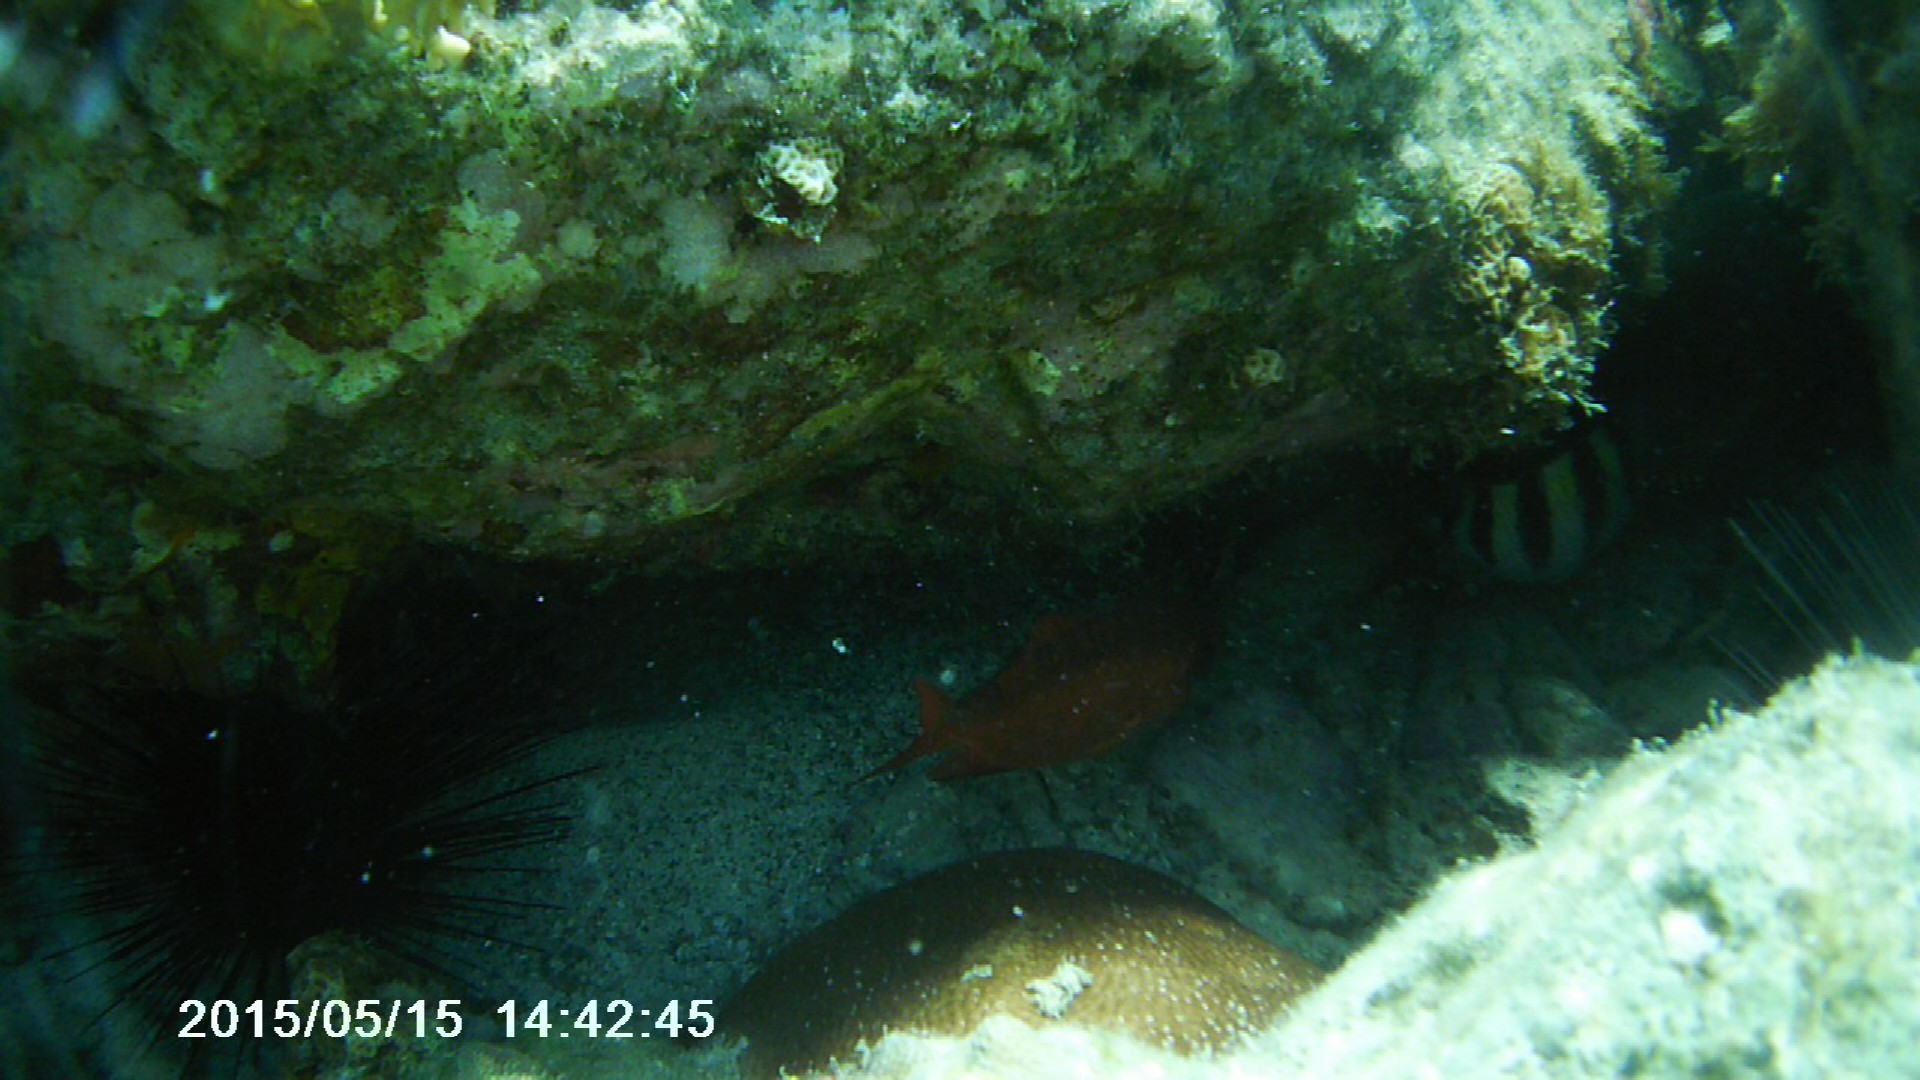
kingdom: Animalia
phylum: Chordata
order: Perciformes
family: Priacanthidae
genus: Heteropriacanthus
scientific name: Heteropriacanthus cruentatus
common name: Glasseye
